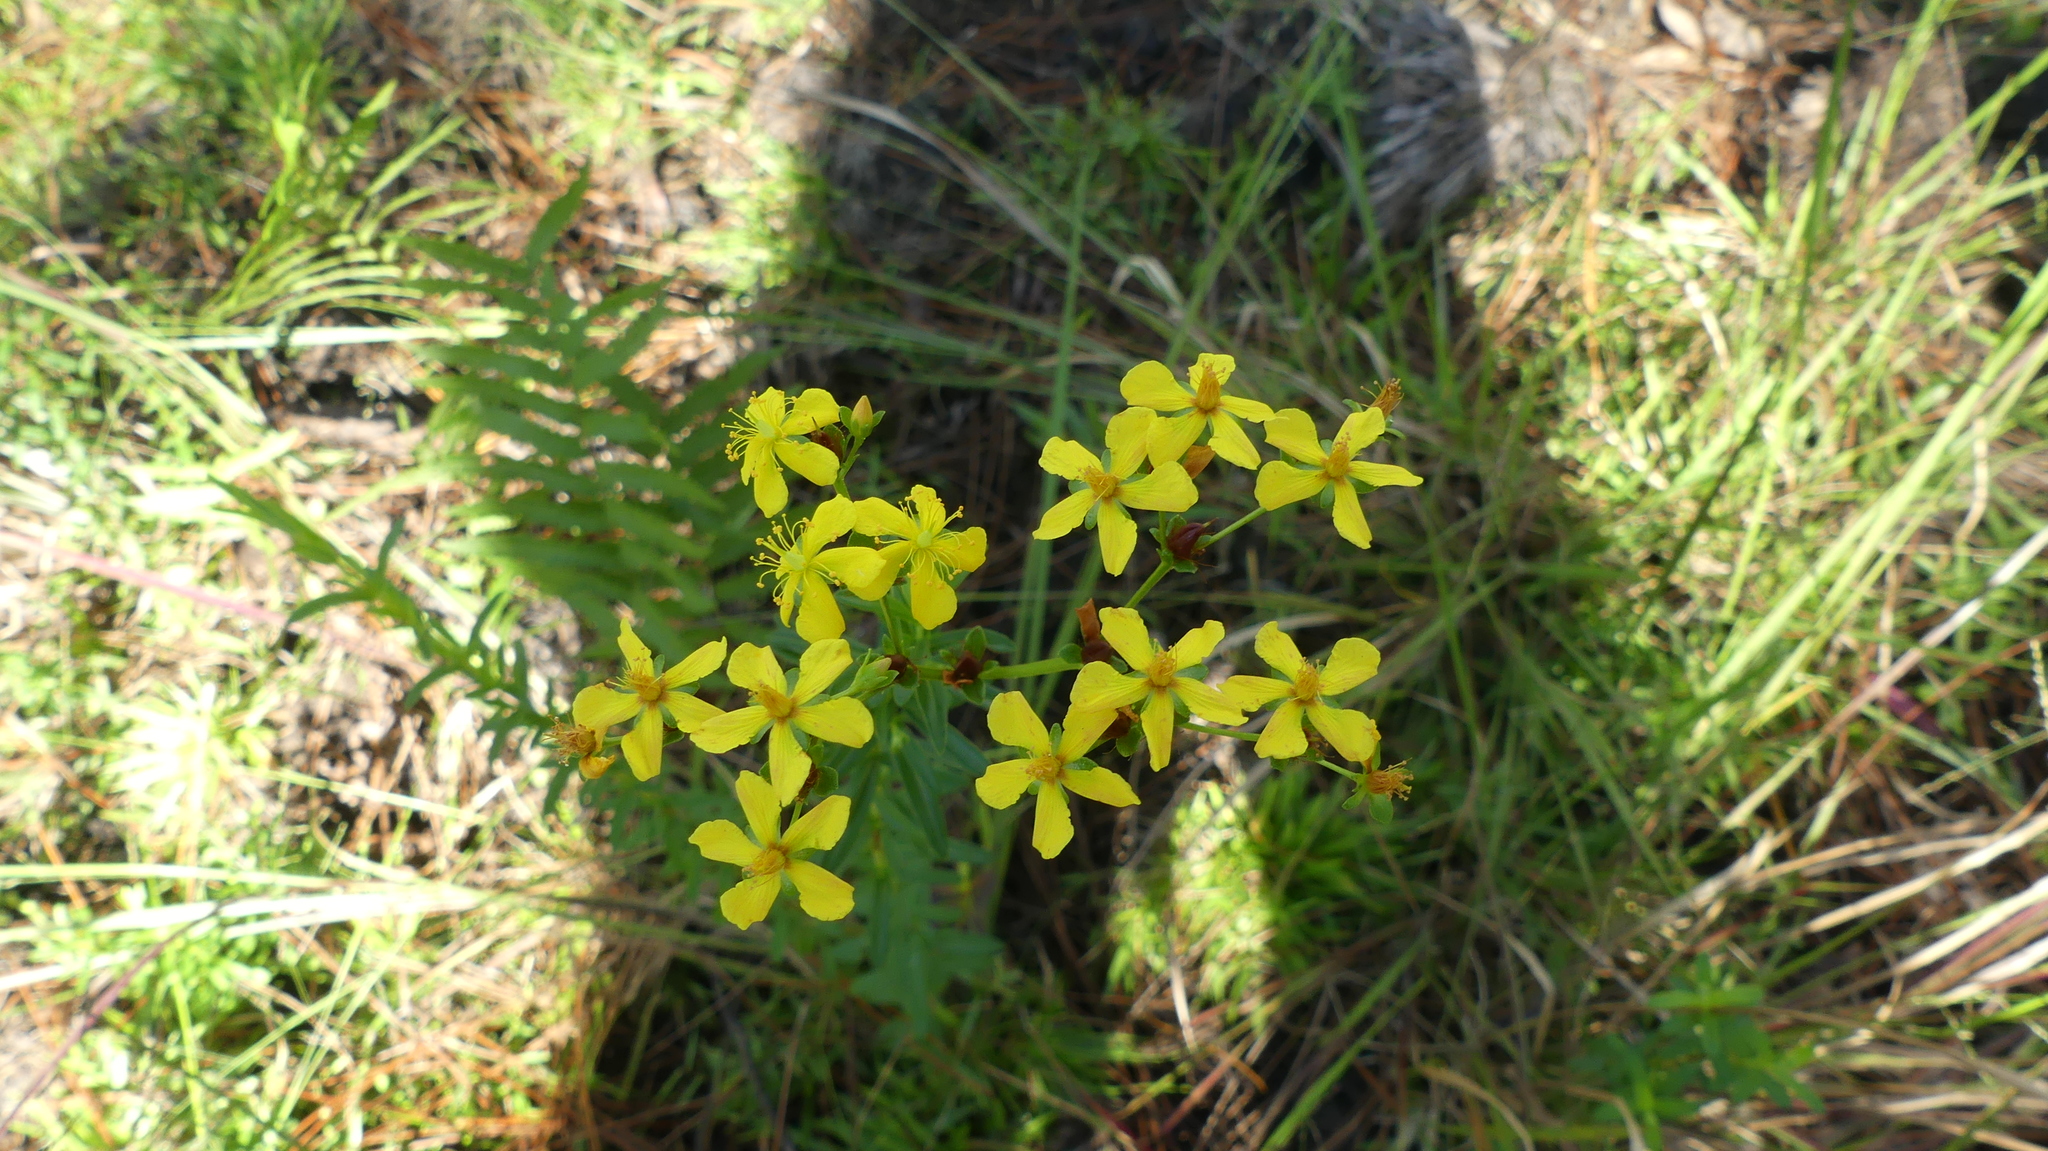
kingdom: Plantae
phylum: Tracheophyta
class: Magnoliopsida
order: Malpighiales
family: Hypericaceae
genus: Hypericum
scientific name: Hypericum cistifolium
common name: Round-pod st. john's-wort
